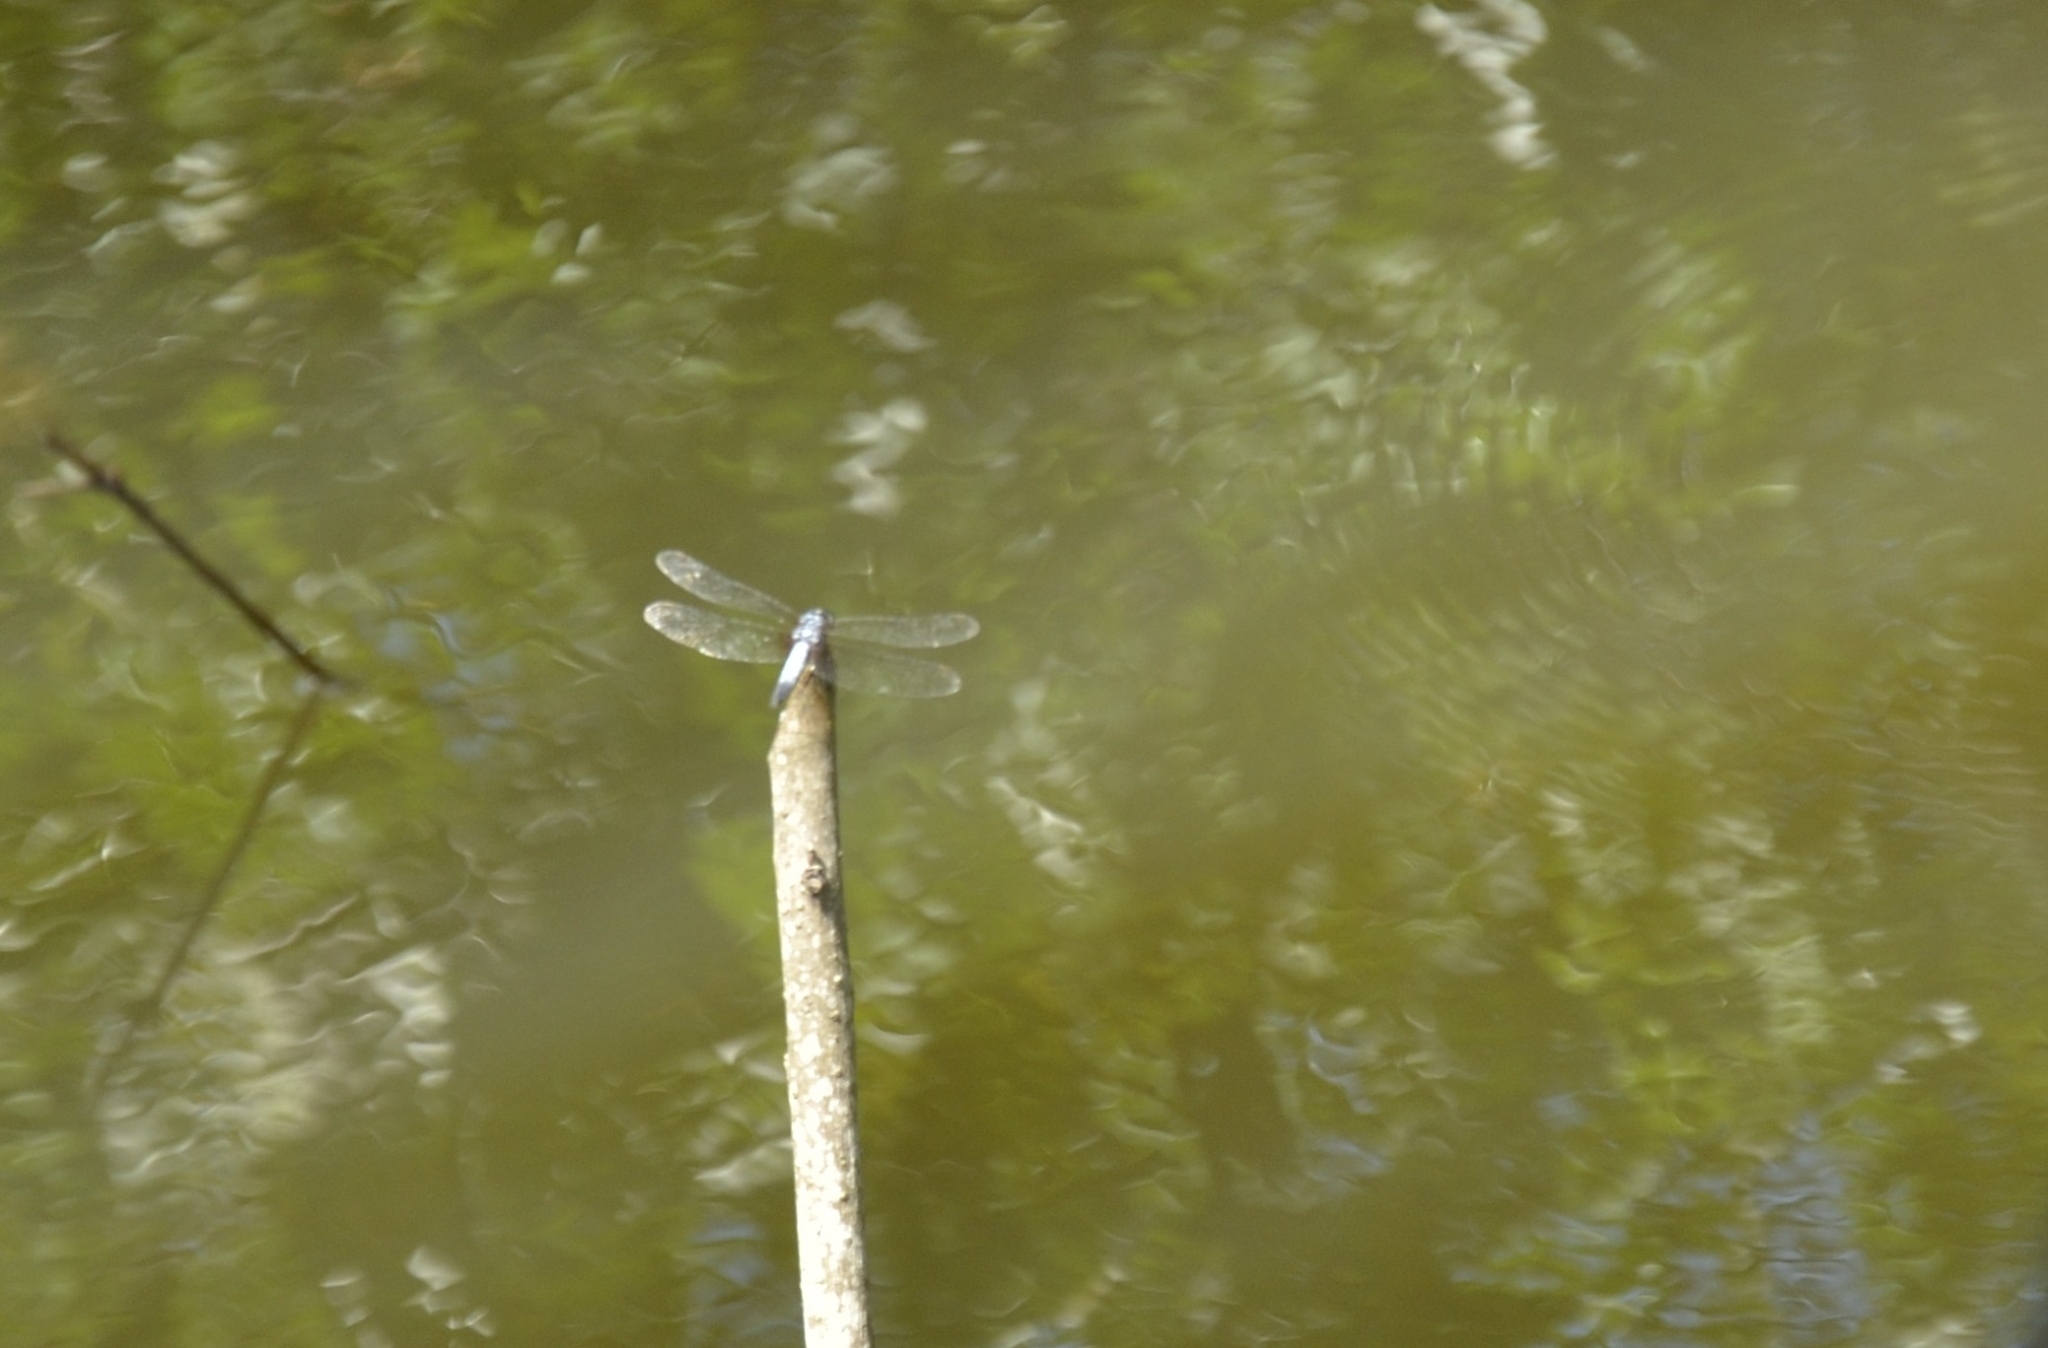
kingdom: Animalia
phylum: Arthropoda
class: Insecta
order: Odonata
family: Libellulidae
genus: Brachydiplax
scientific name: Brachydiplax chalybea
